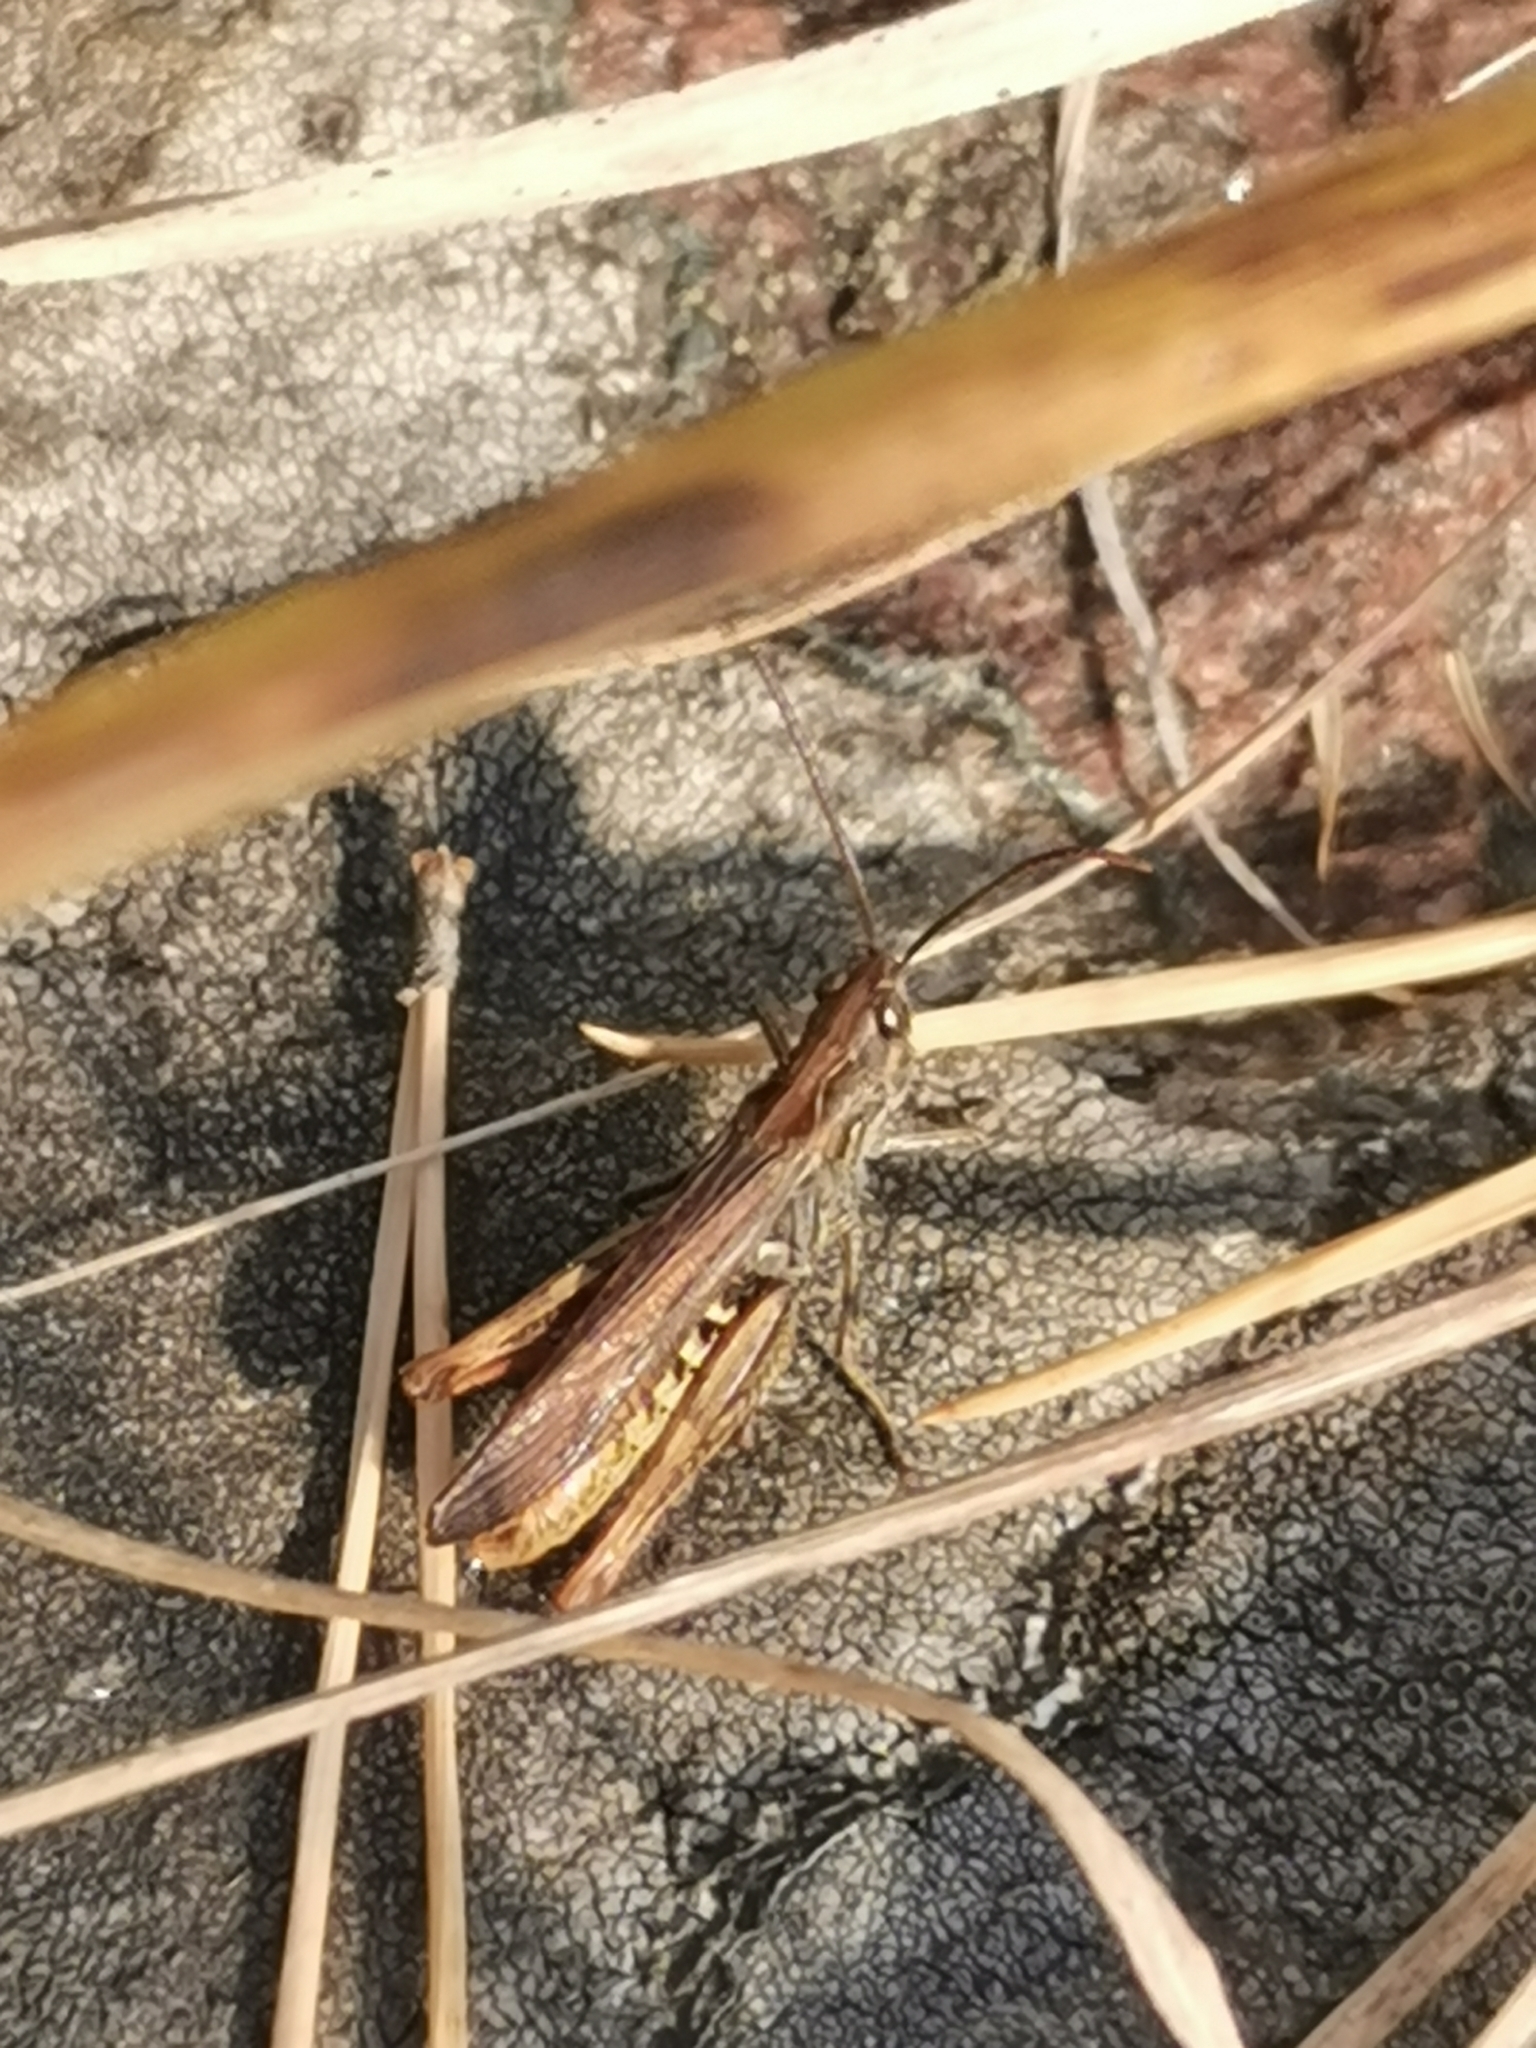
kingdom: Animalia
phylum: Arthropoda
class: Insecta
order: Orthoptera
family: Acrididae
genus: Chorthippus
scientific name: Chorthippus brunneus
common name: Field grasshopper
